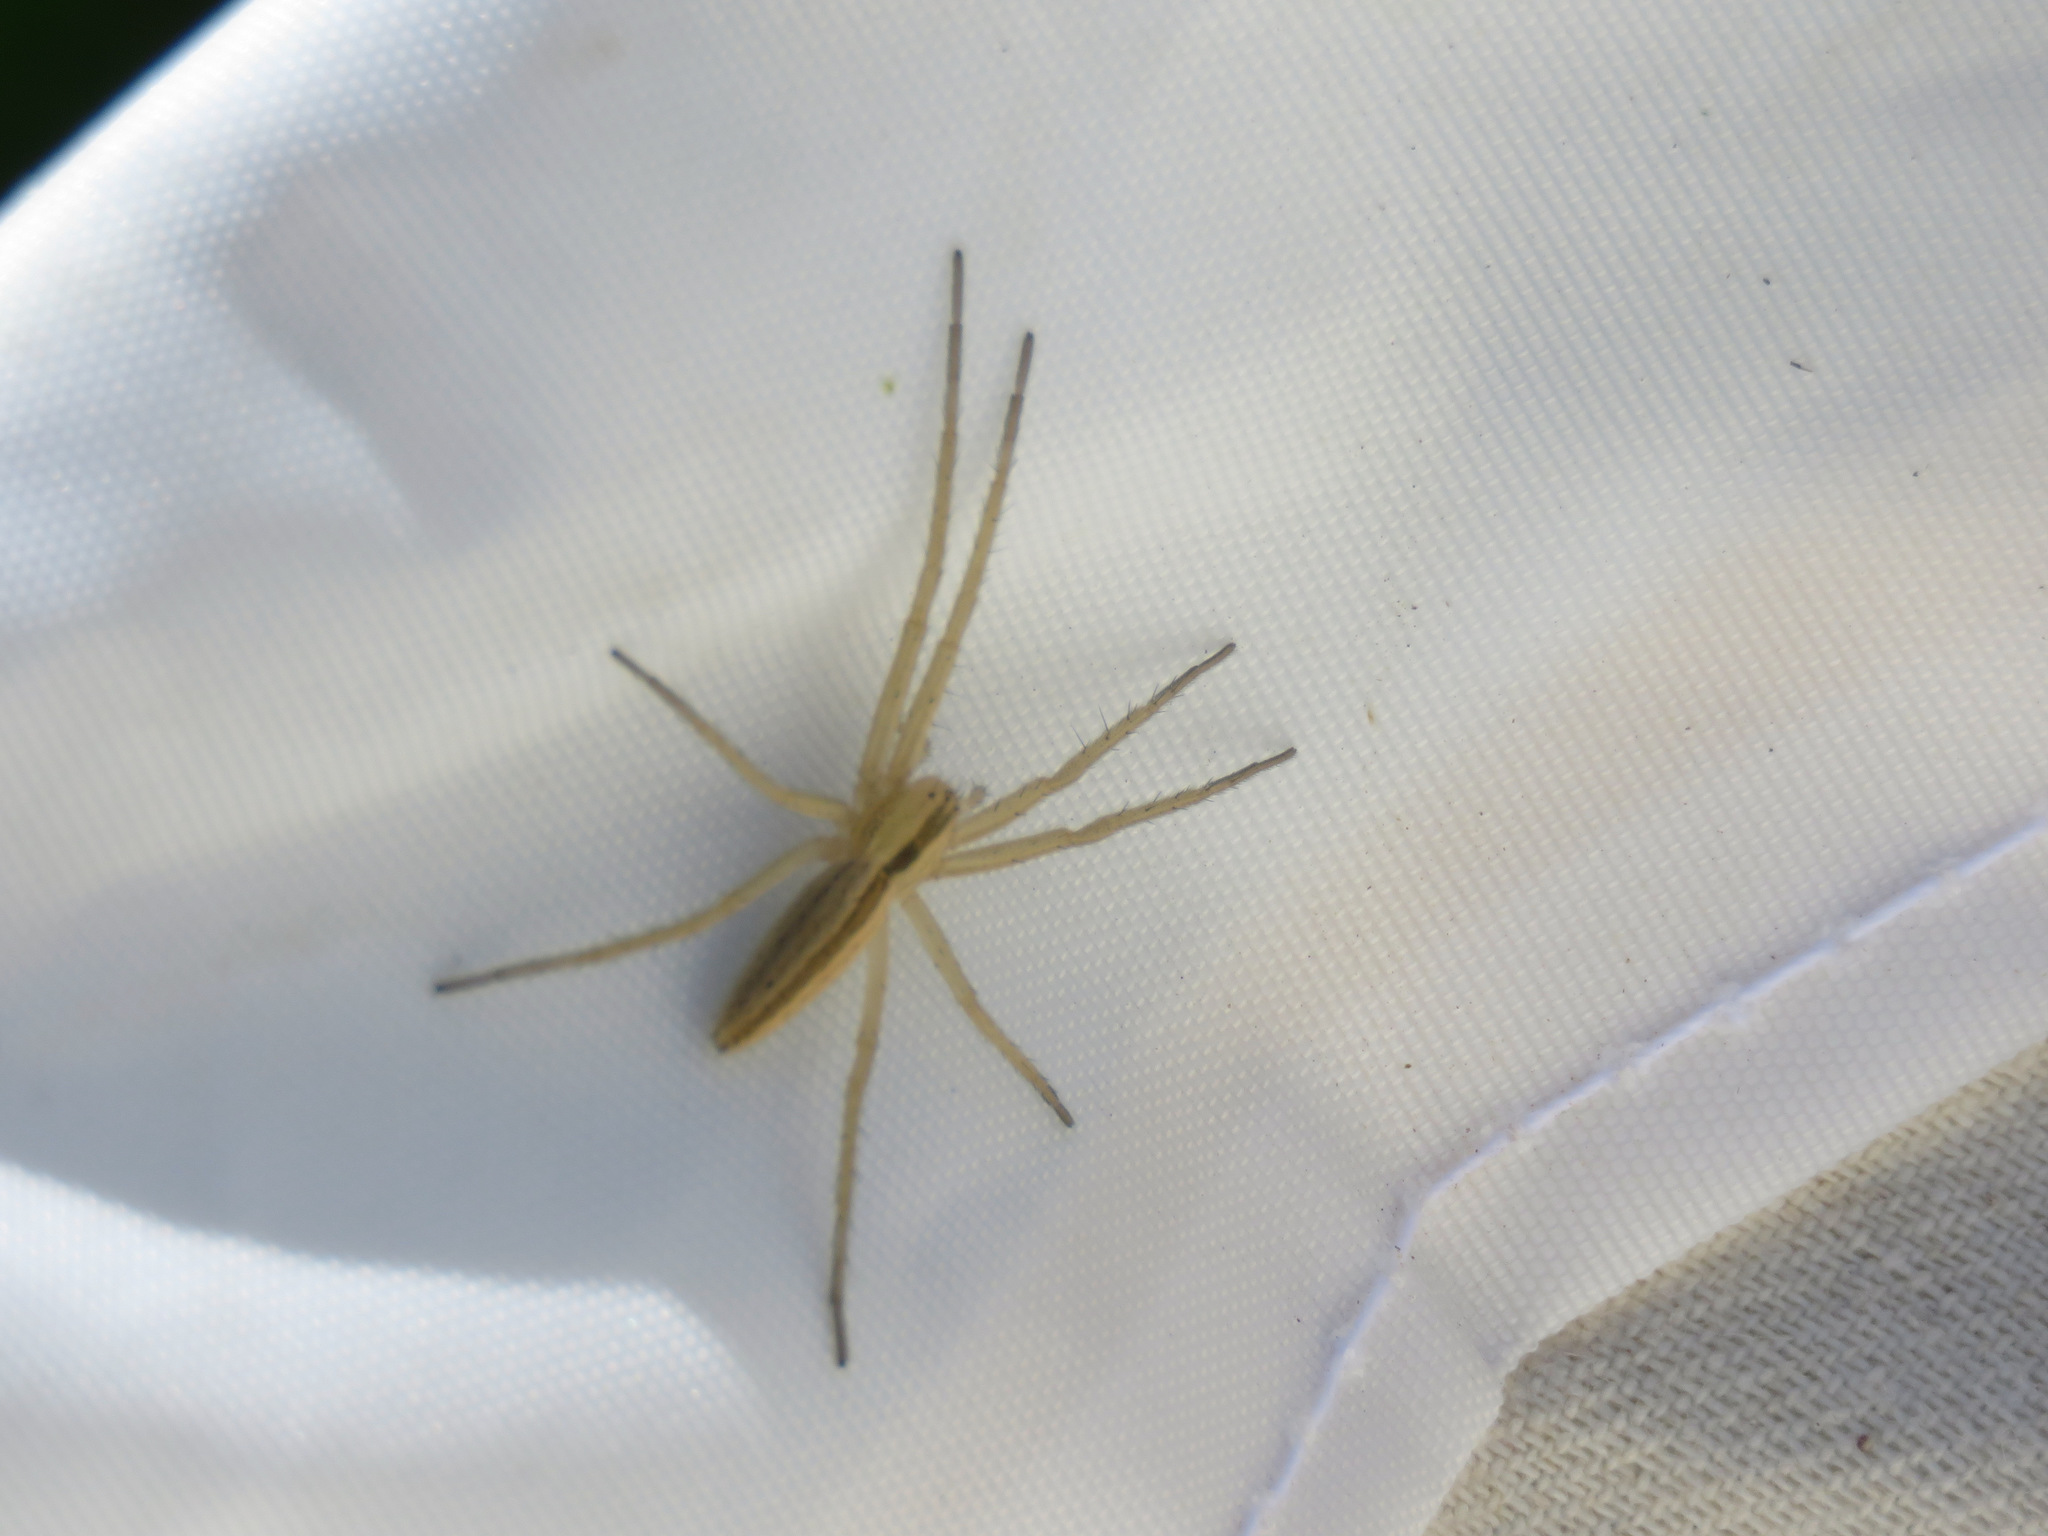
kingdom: Animalia
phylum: Arthropoda
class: Arachnida
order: Araneae
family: Philodromidae
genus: Tibellus
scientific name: Tibellus oblongus
